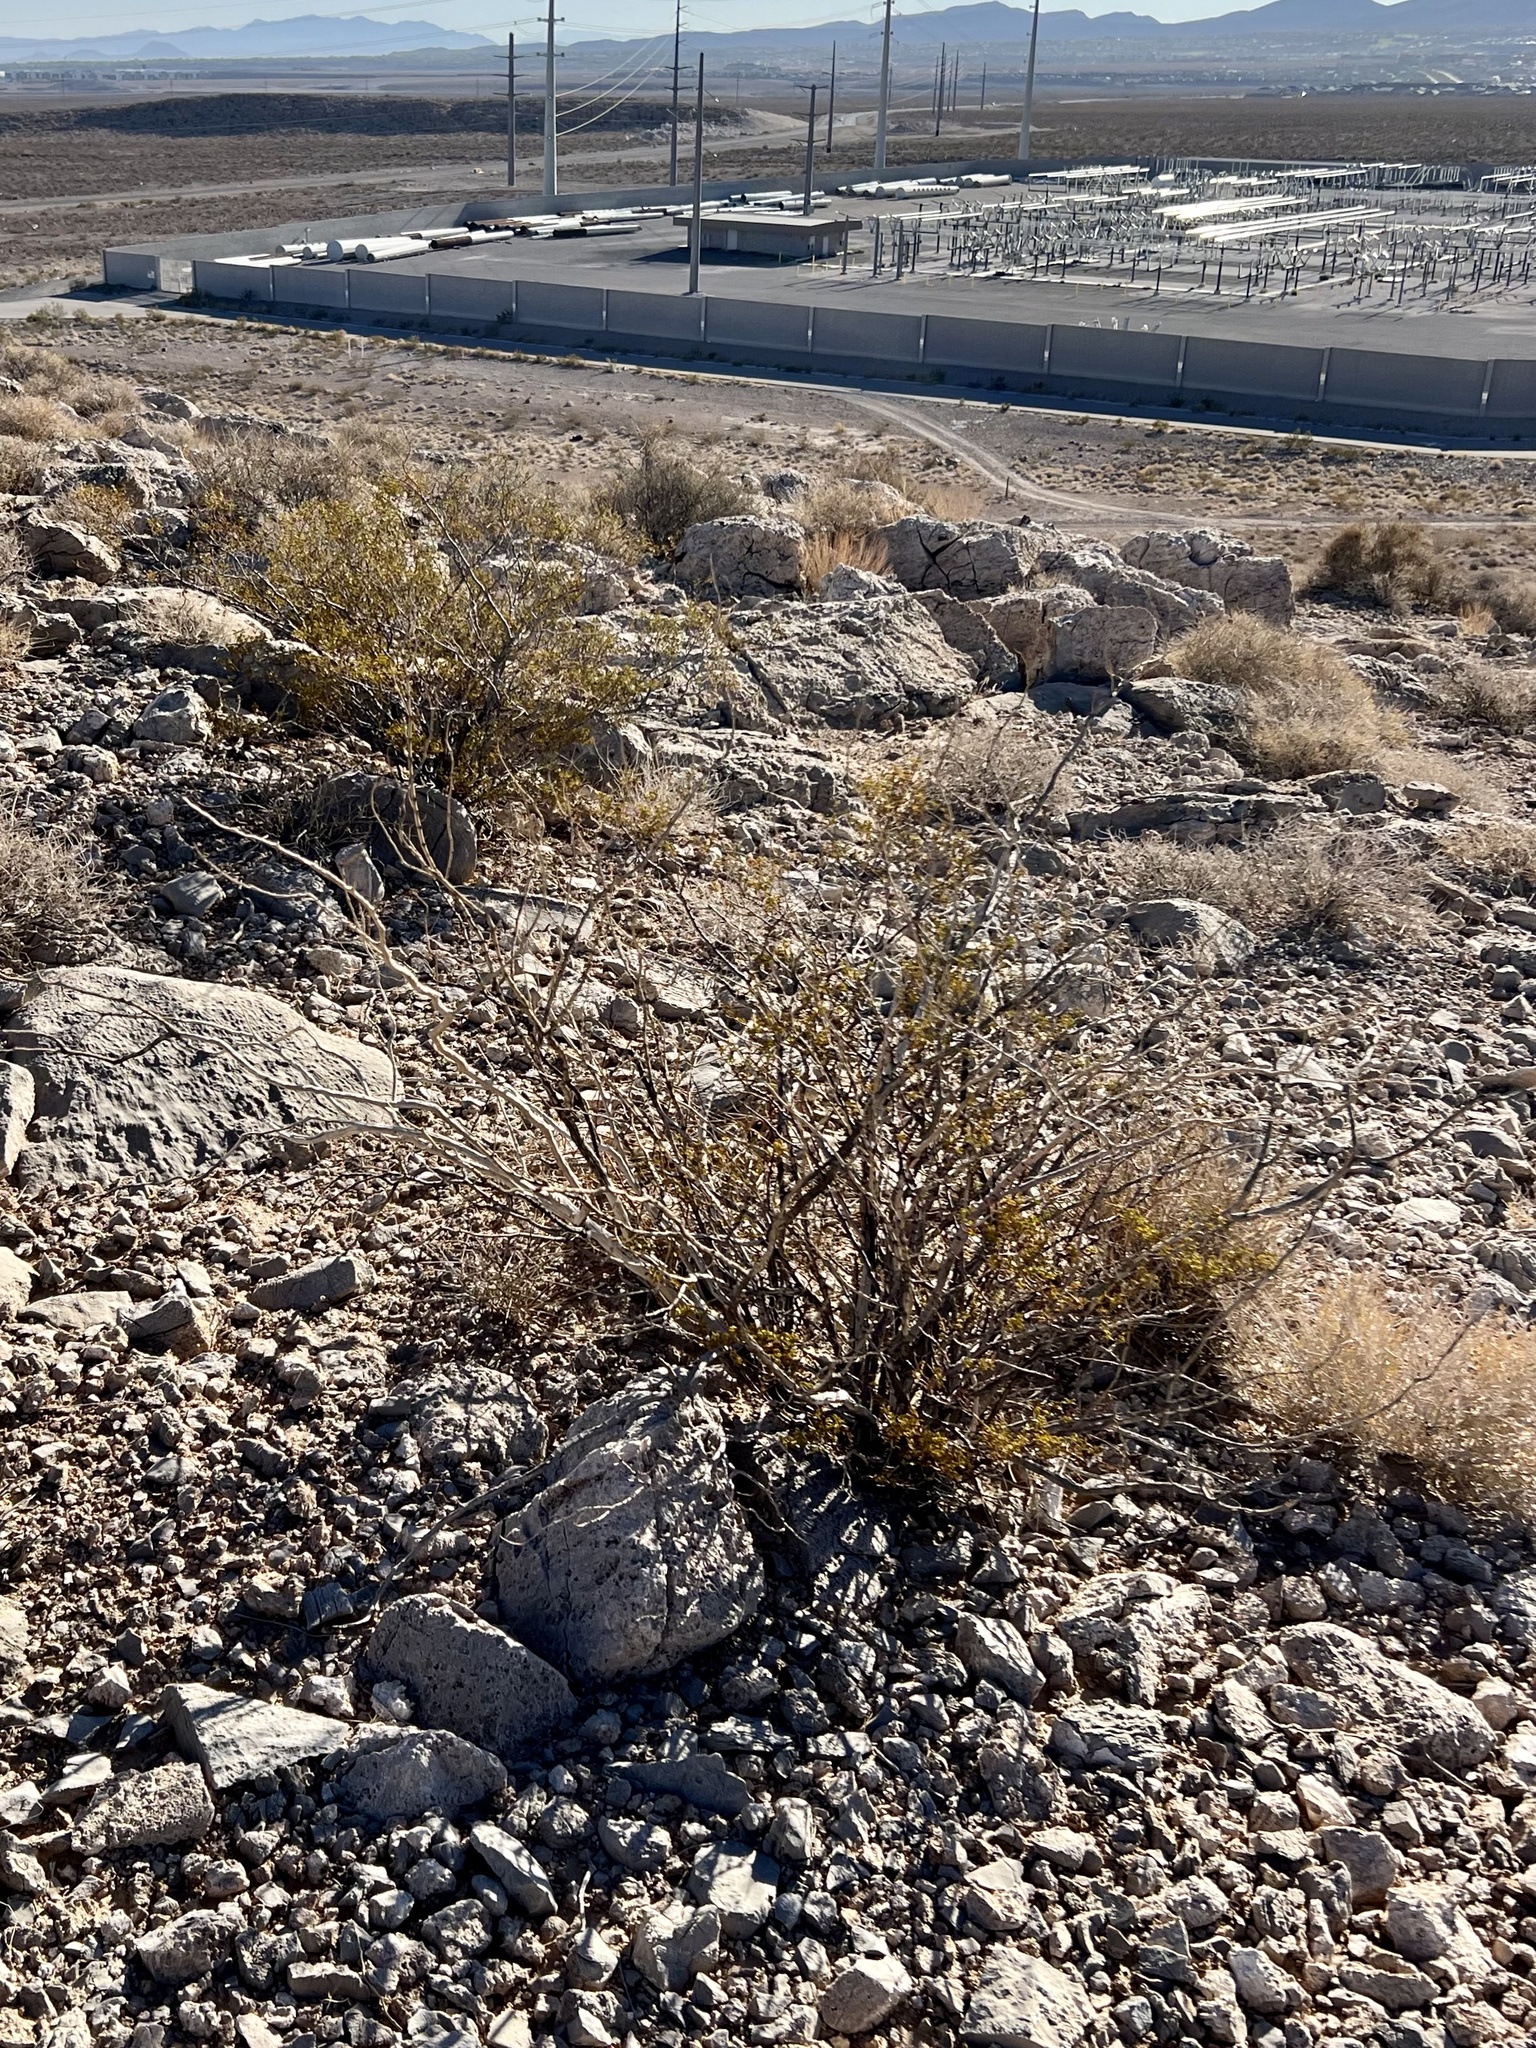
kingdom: Plantae
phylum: Tracheophyta
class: Magnoliopsida
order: Zygophyllales
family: Zygophyllaceae
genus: Larrea
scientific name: Larrea tridentata
